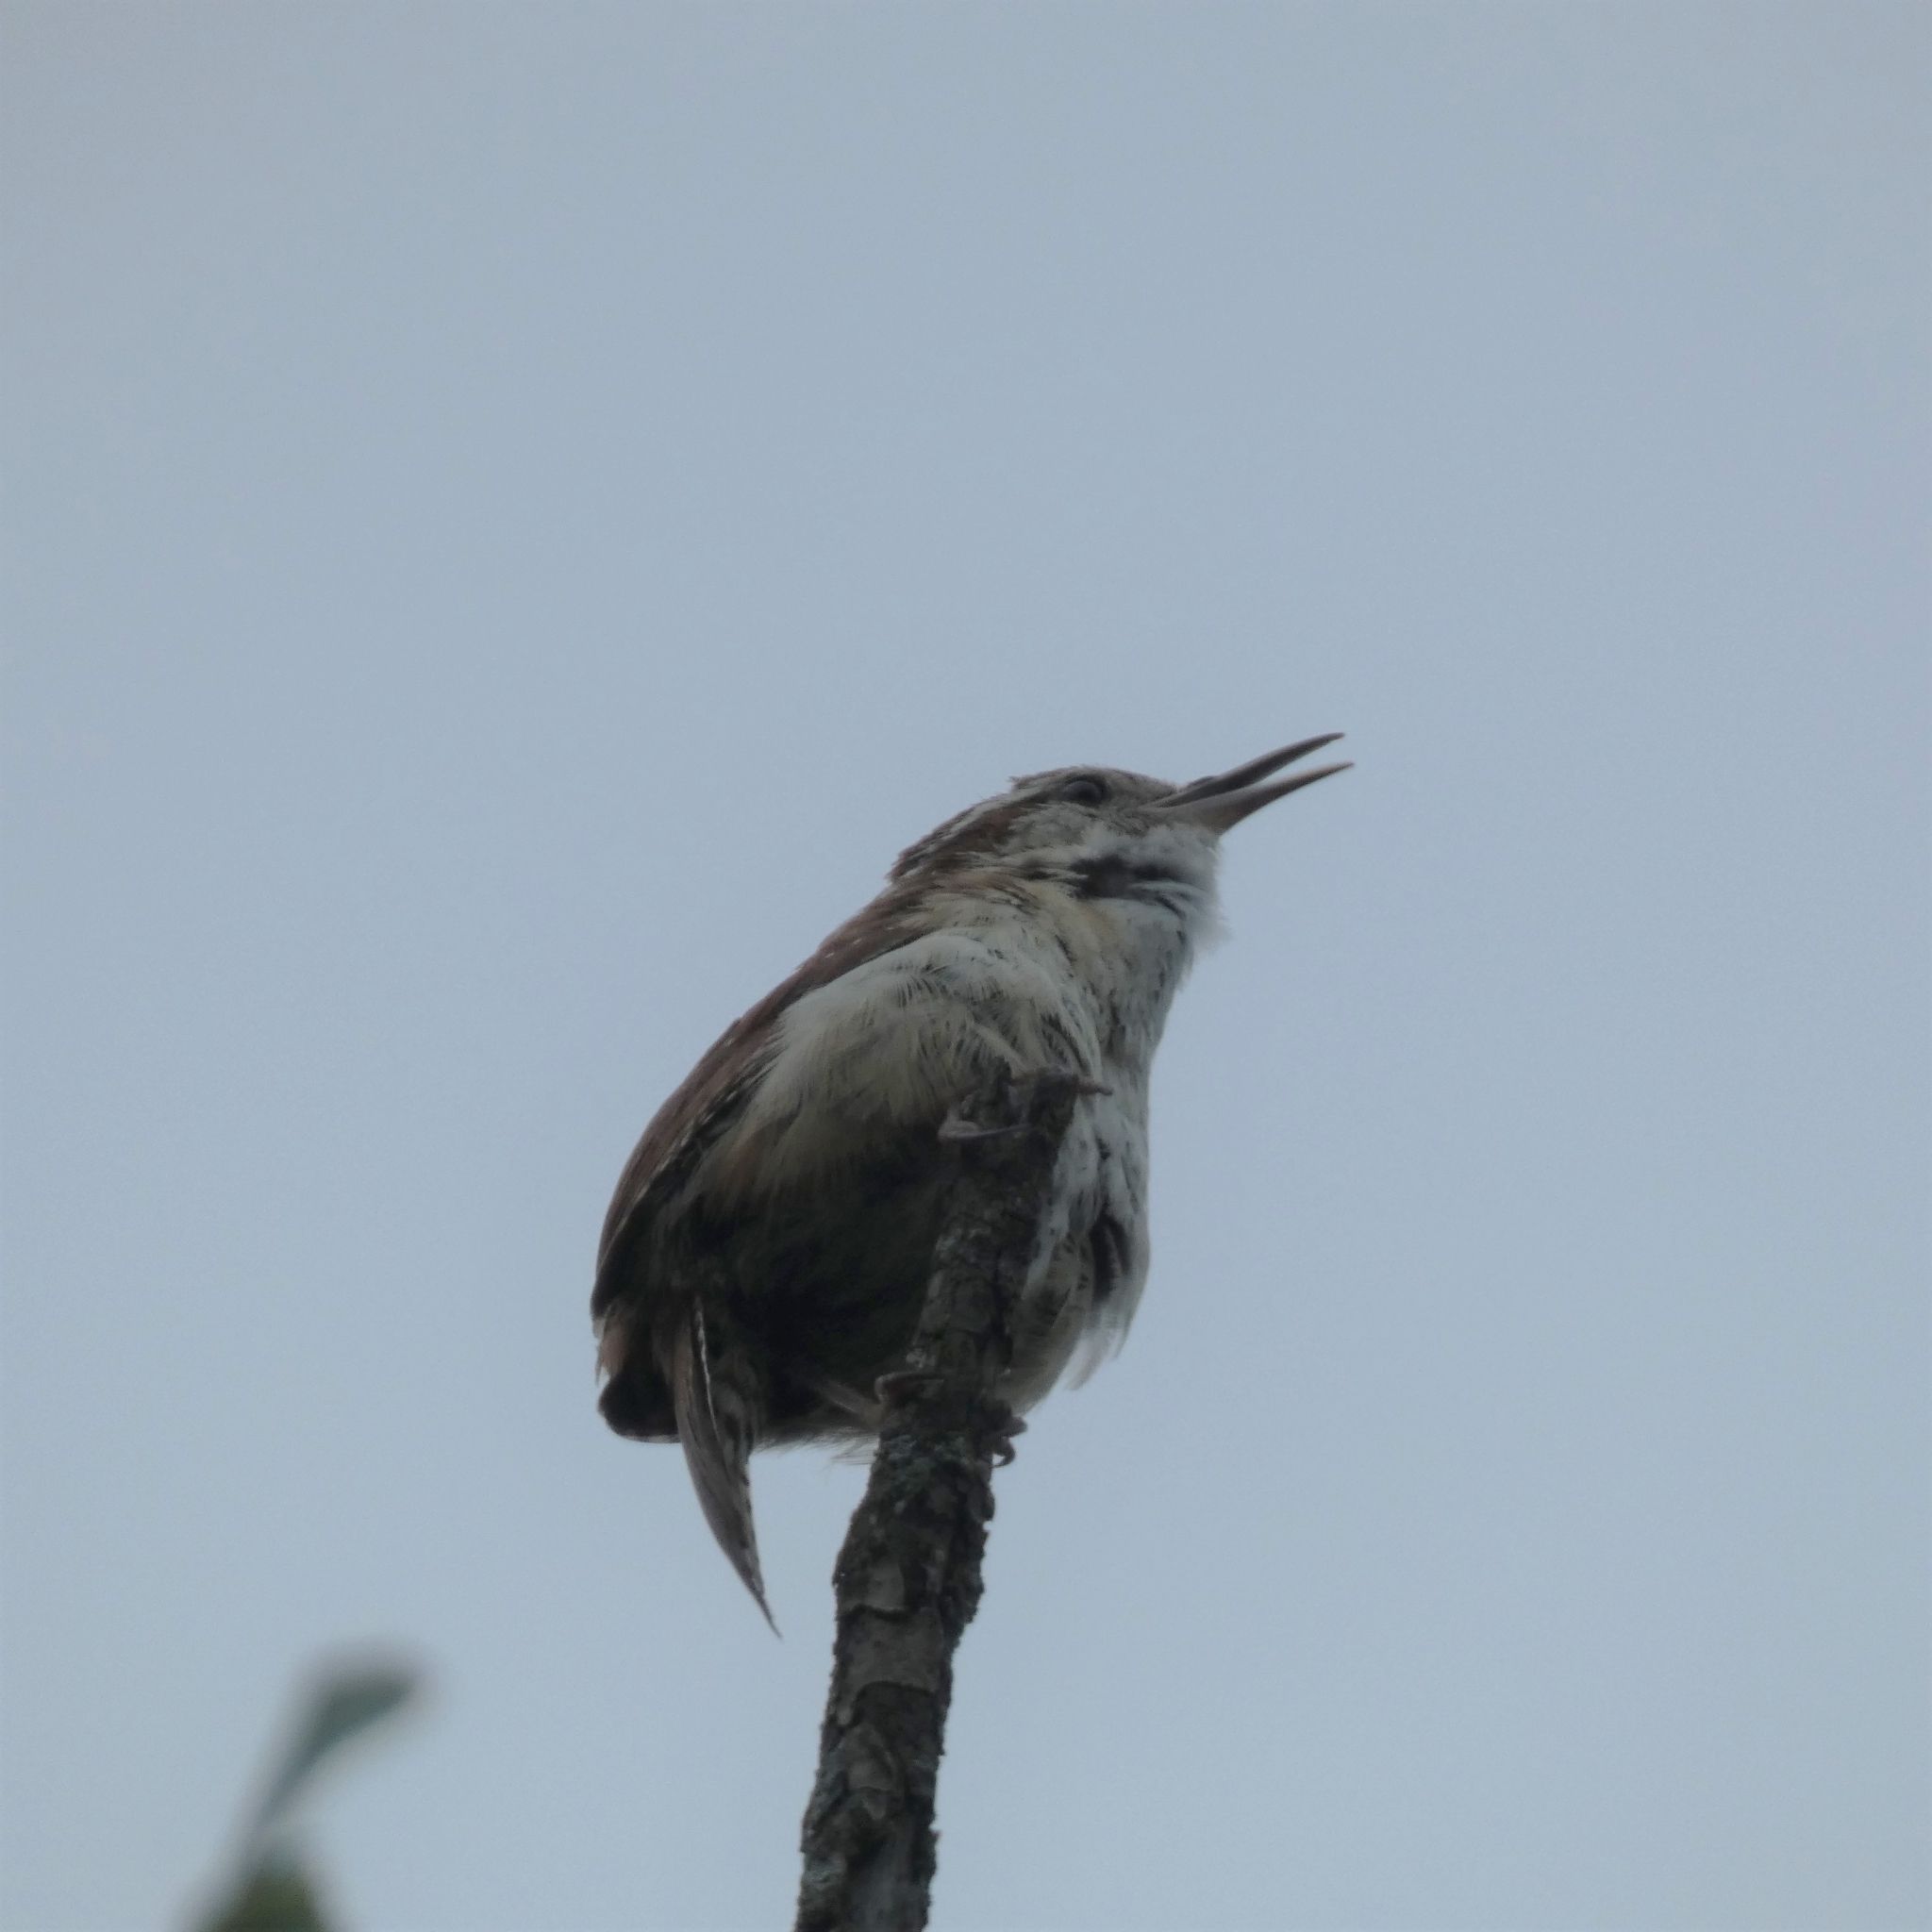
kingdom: Animalia
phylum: Chordata
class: Aves
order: Passeriformes
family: Troglodytidae
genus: Thryothorus
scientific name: Thryothorus ludovicianus
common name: Carolina wren
